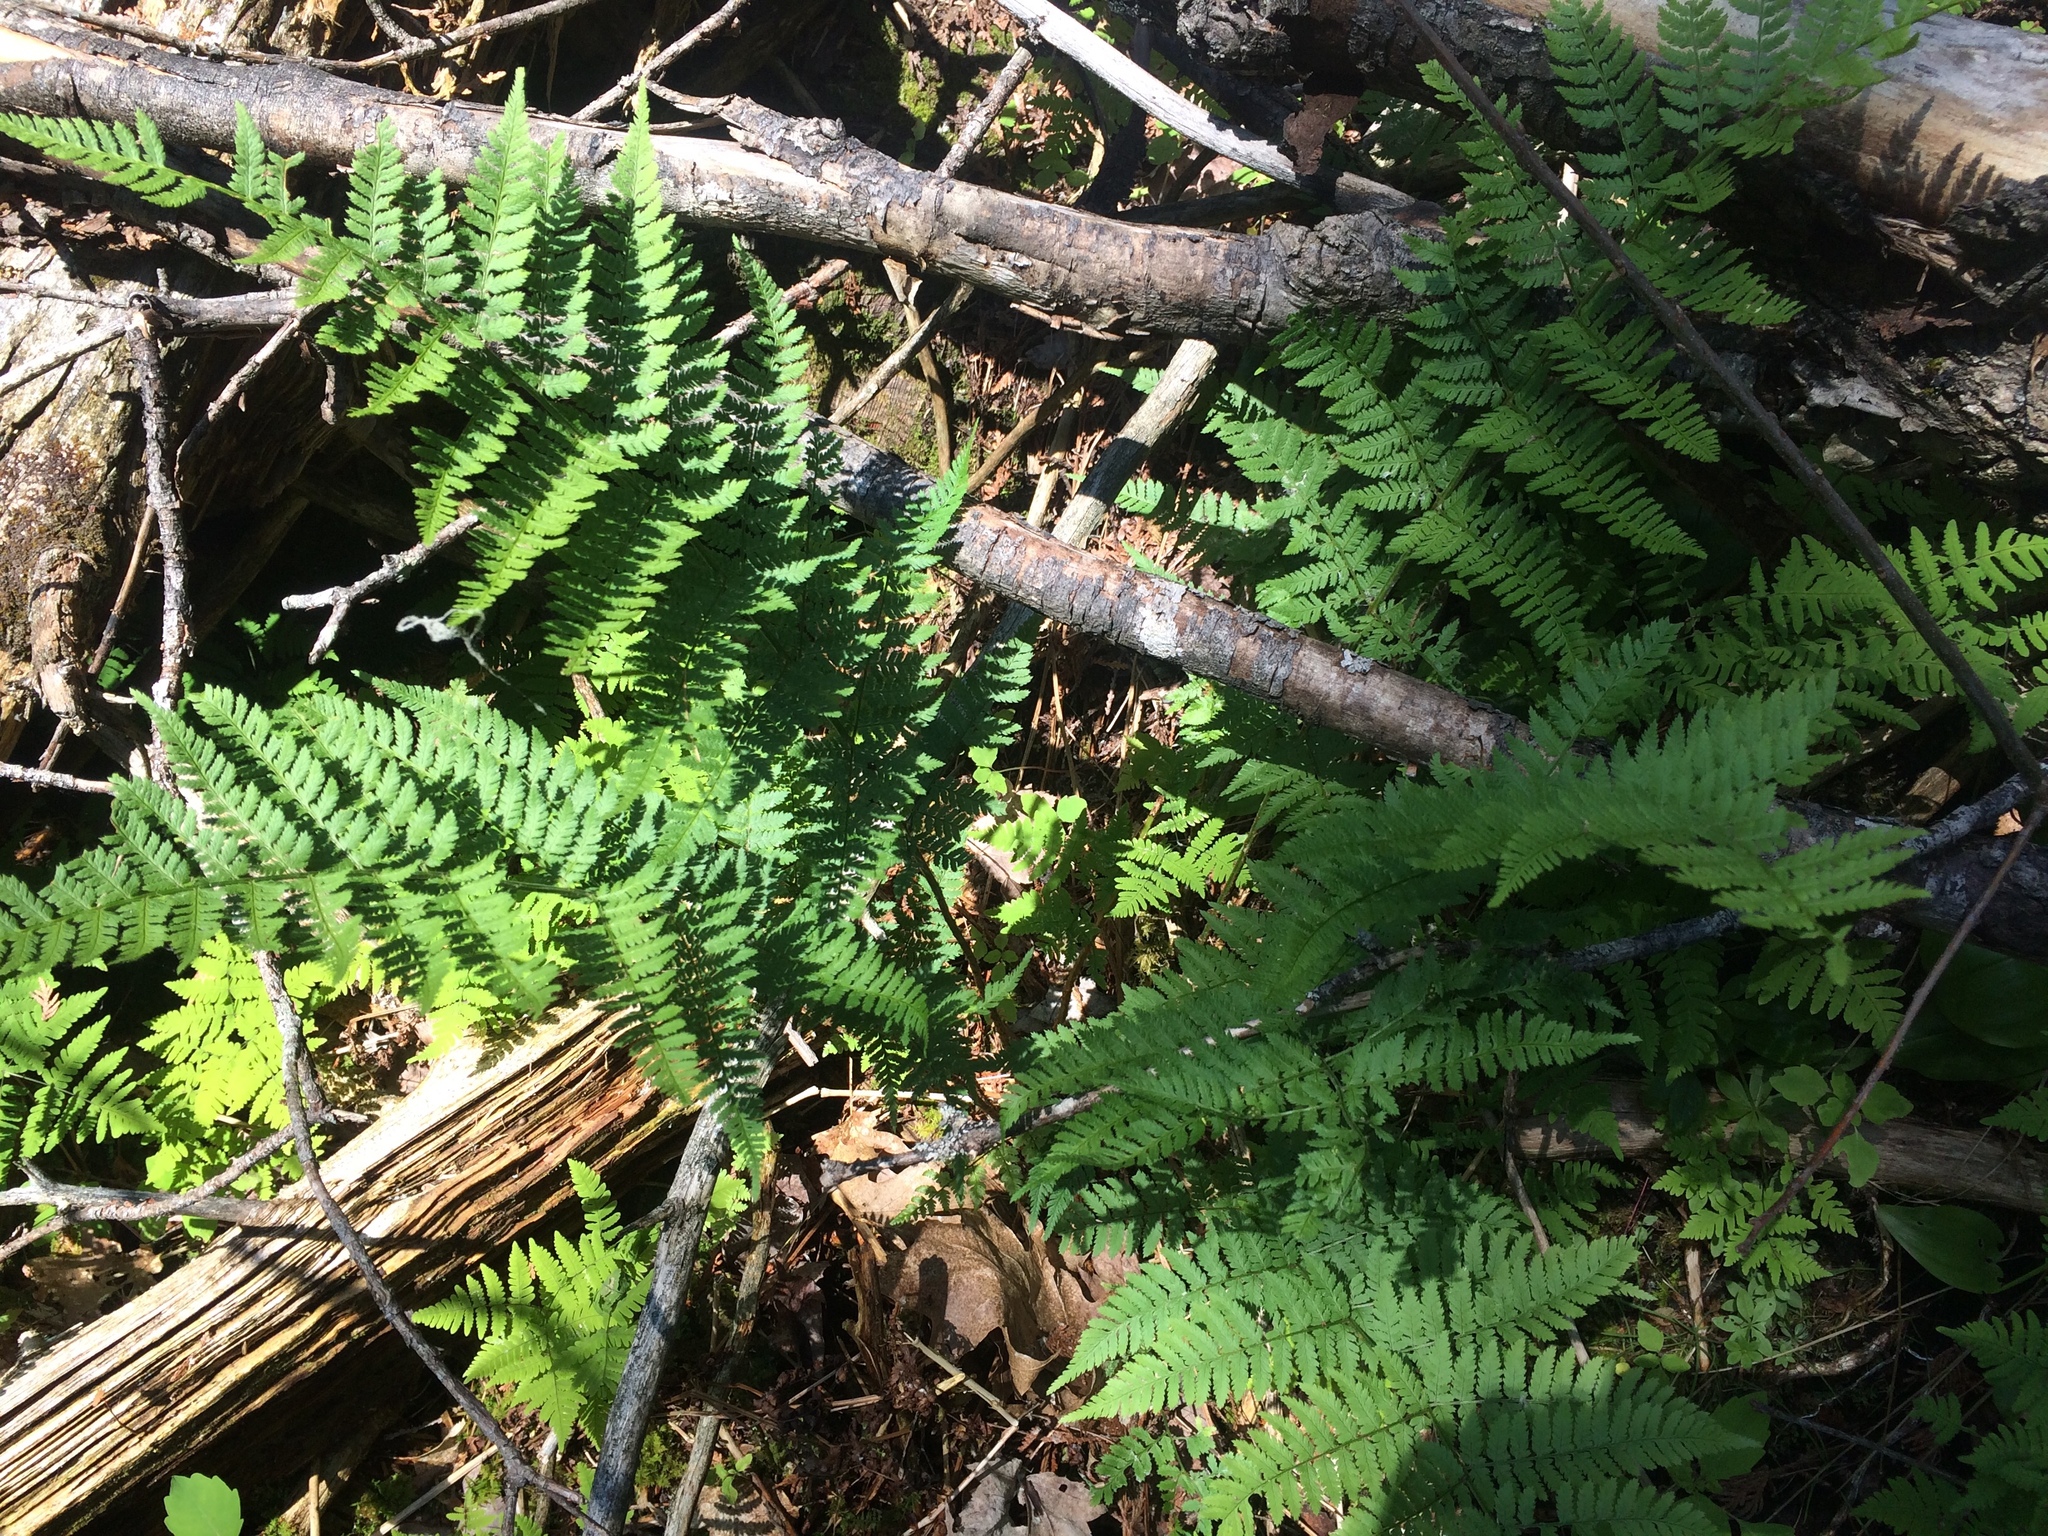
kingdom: Plantae
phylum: Tracheophyta
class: Polypodiopsida
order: Polypodiales
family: Dryopteridaceae
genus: Dryopteris
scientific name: Dryopteris carthusiana
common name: Narrow buckler-fern
